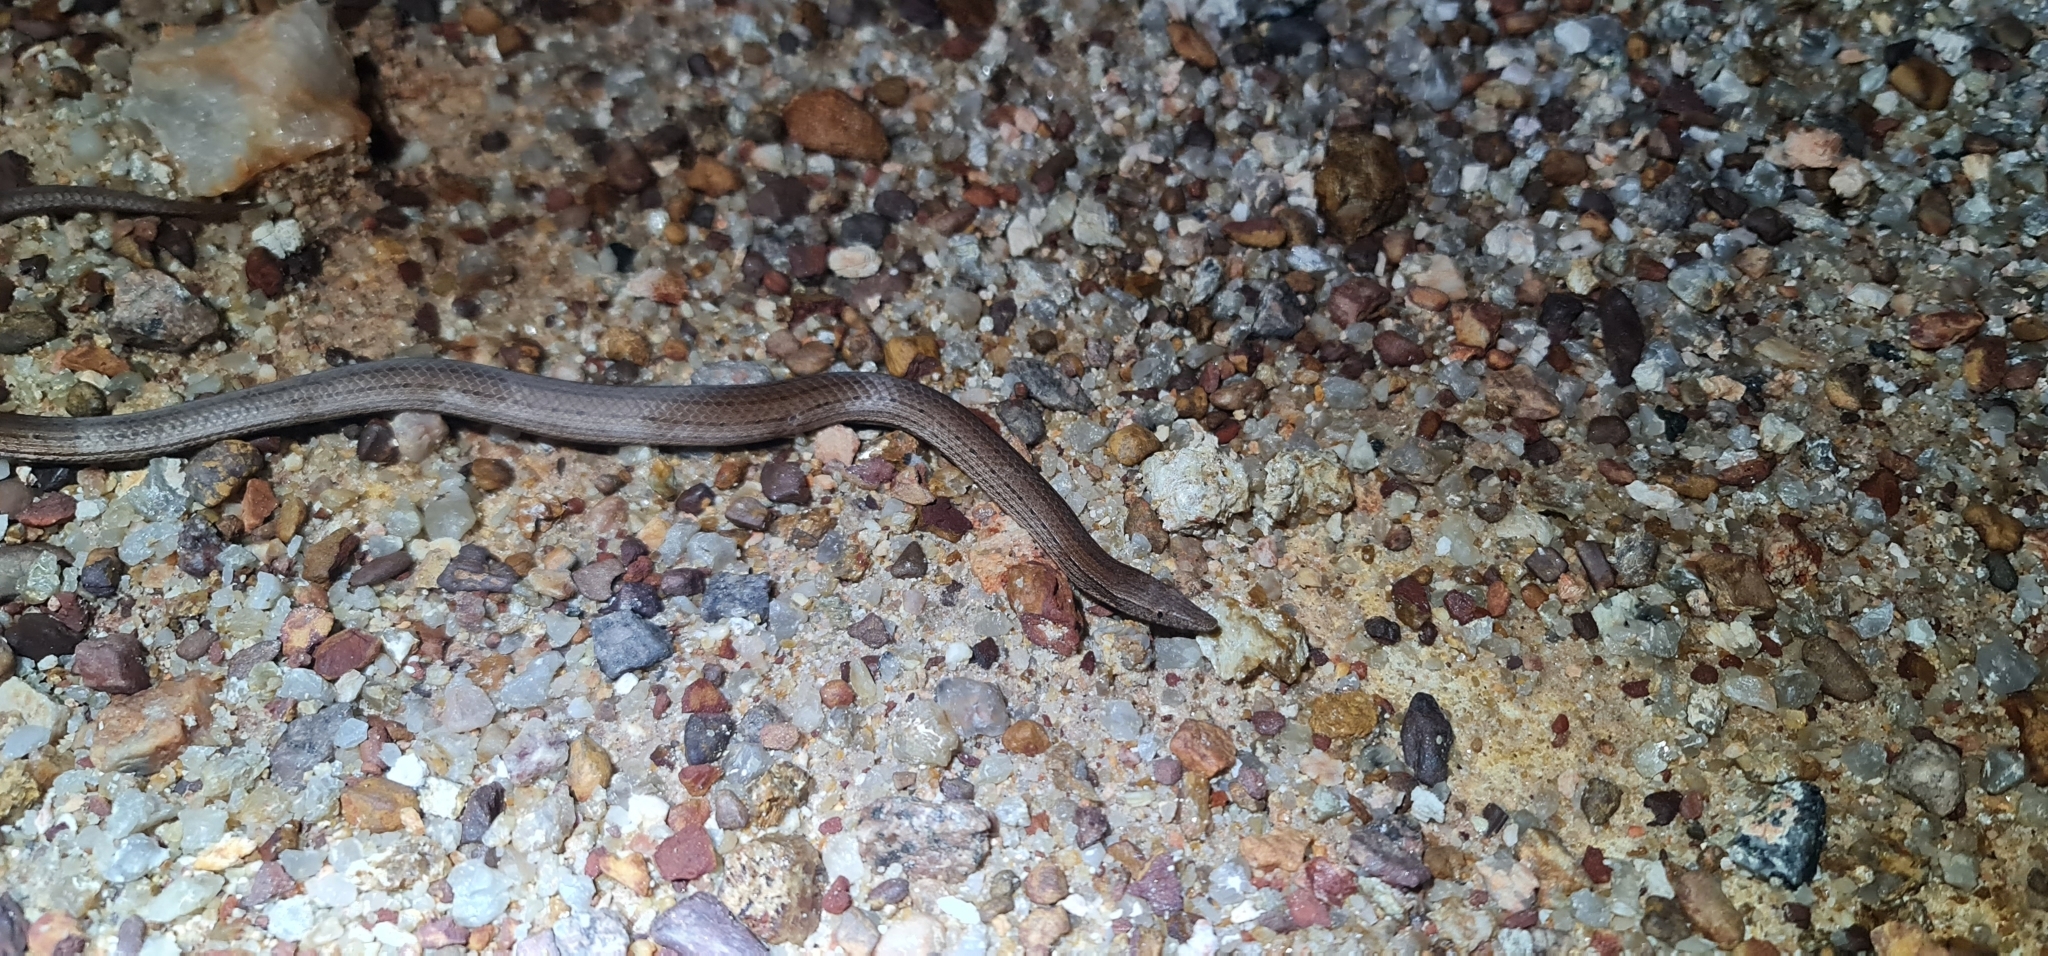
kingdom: Animalia
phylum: Chordata
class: Squamata
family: Pygopodidae
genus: Lialis
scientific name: Lialis burtonis
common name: Burton's legless lizard
